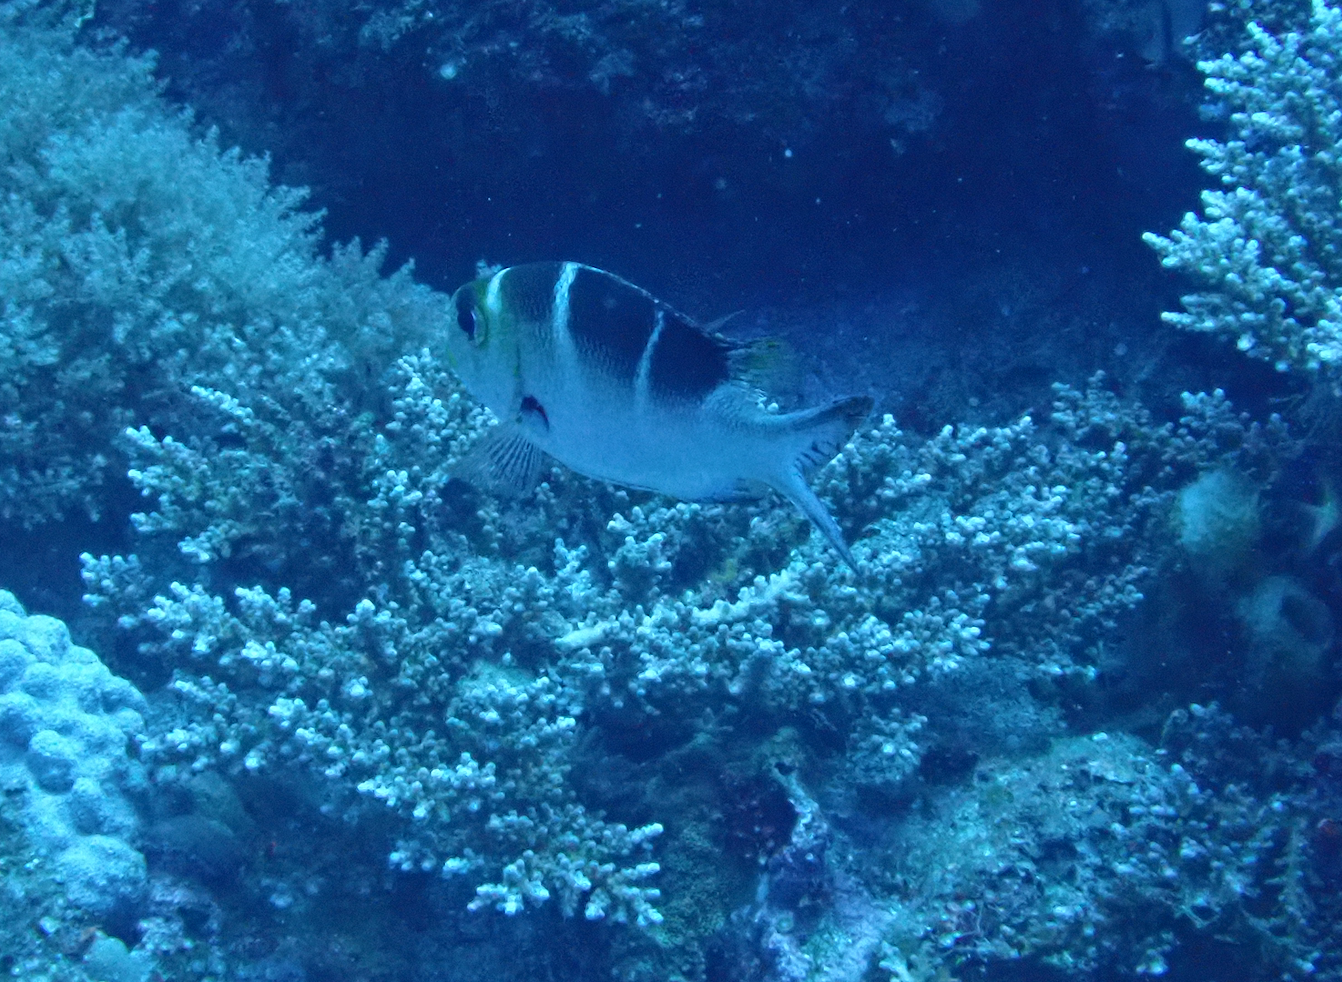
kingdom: Animalia
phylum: Chordata
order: Perciformes
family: Lethrinidae
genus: Monotaxis
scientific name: Monotaxis grandoculis
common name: Bigeye emperor
